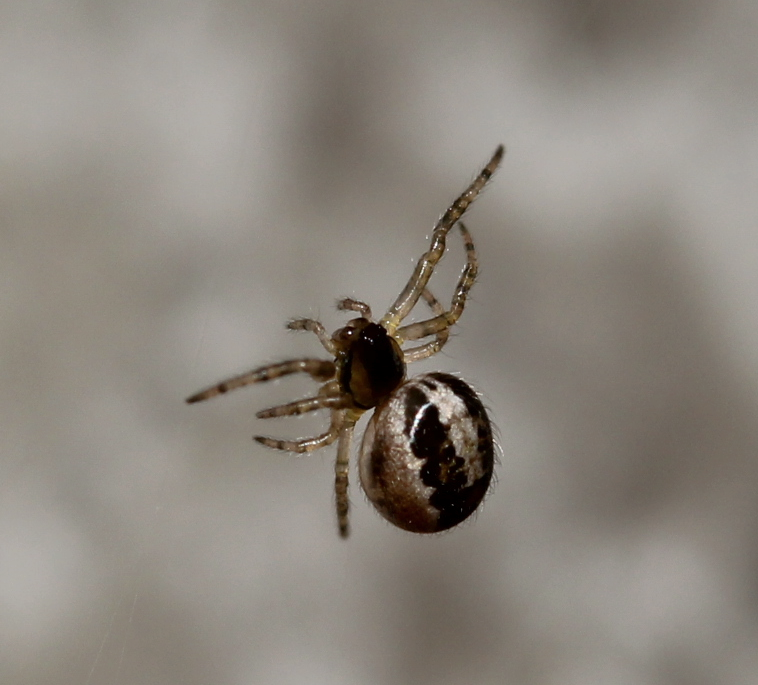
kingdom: Animalia
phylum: Arthropoda
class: Arachnida
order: Araneae
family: Araneidae
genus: Leviellus
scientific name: Leviellus stroemi
